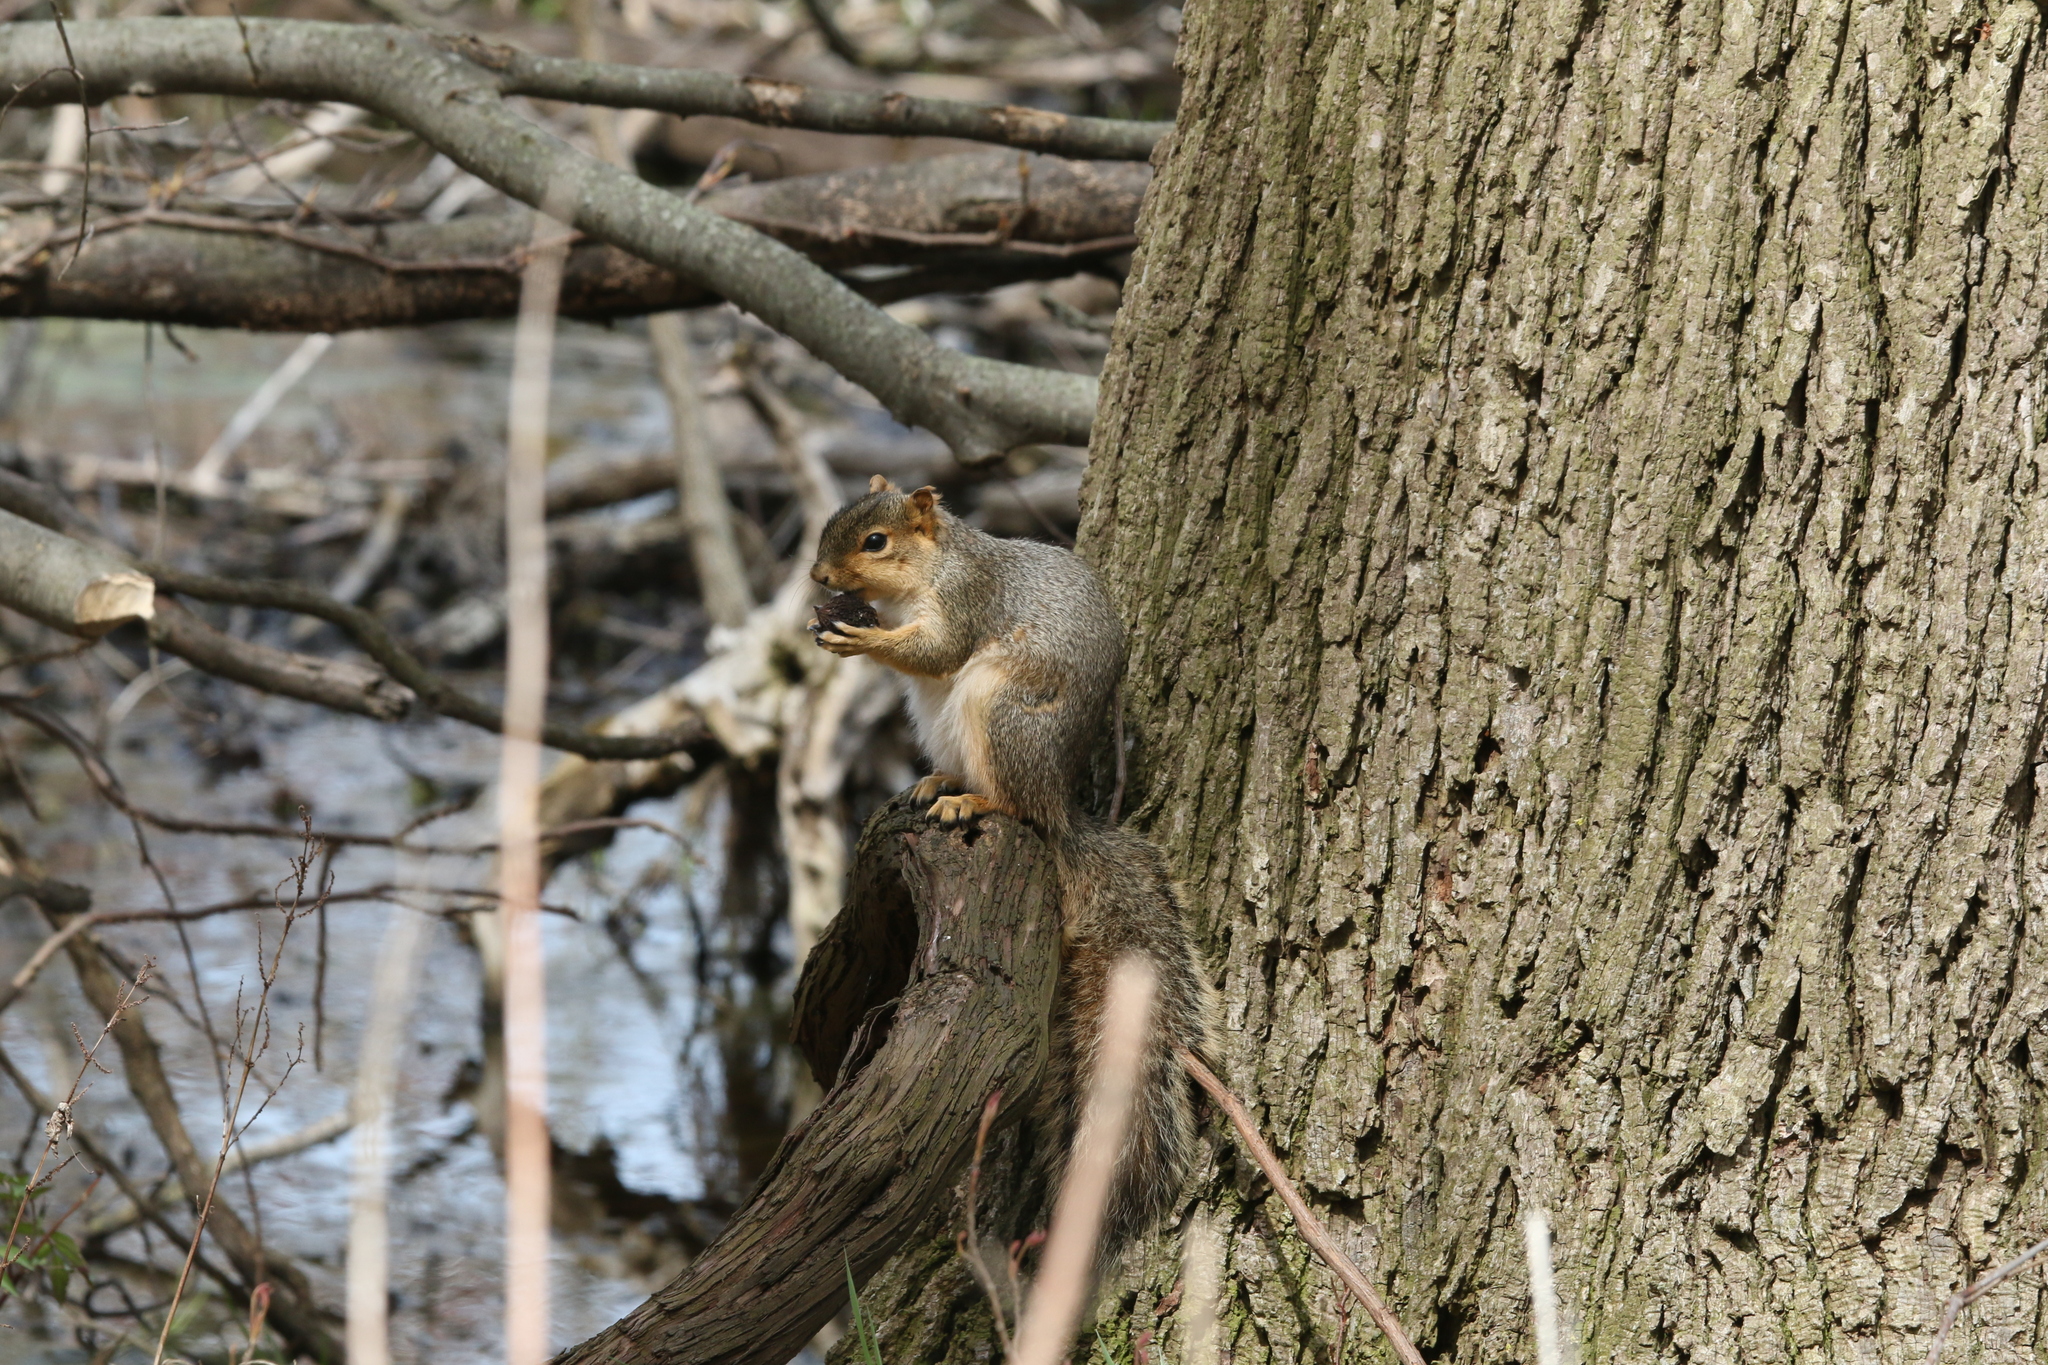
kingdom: Animalia
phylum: Chordata
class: Mammalia
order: Rodentia
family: Sciuridae
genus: Sciurus
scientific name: Sciurus niger
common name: Fox squirrel
